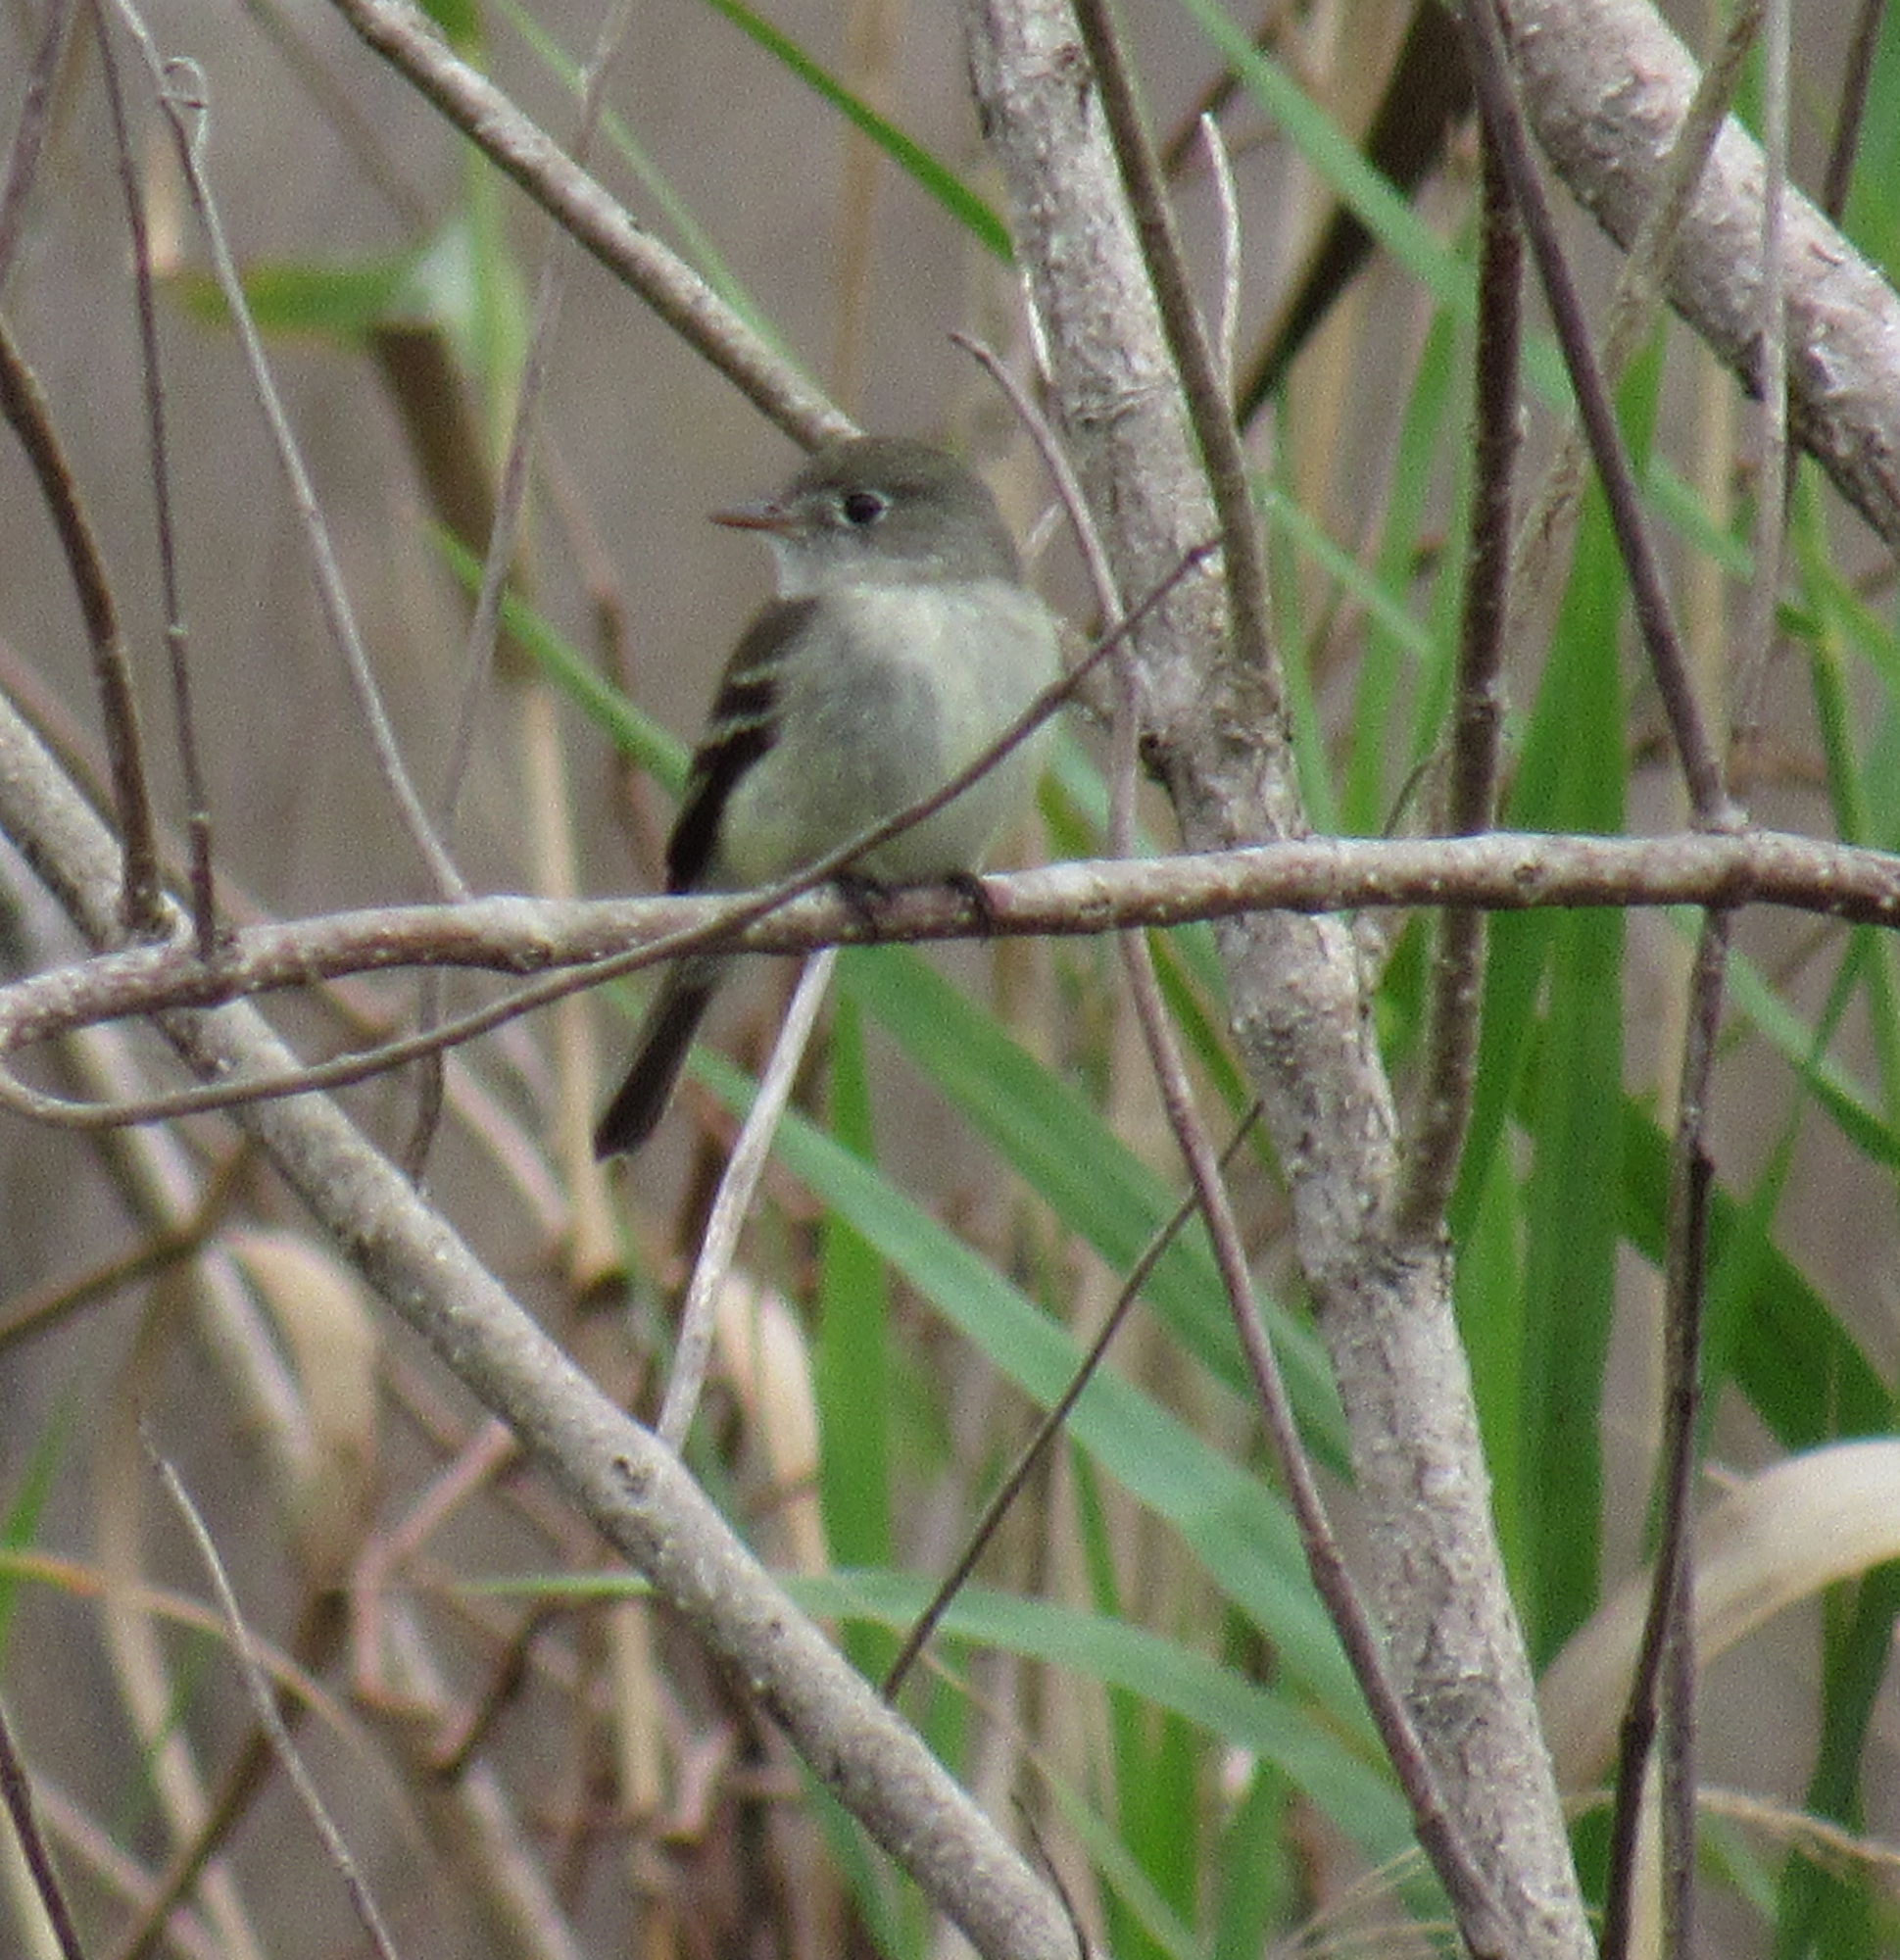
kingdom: Animalia
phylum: Chordata
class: Aves
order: Passeriformes
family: Tyrannidae
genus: Empidonax
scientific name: Empidonax minimus
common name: Least flycatcher
